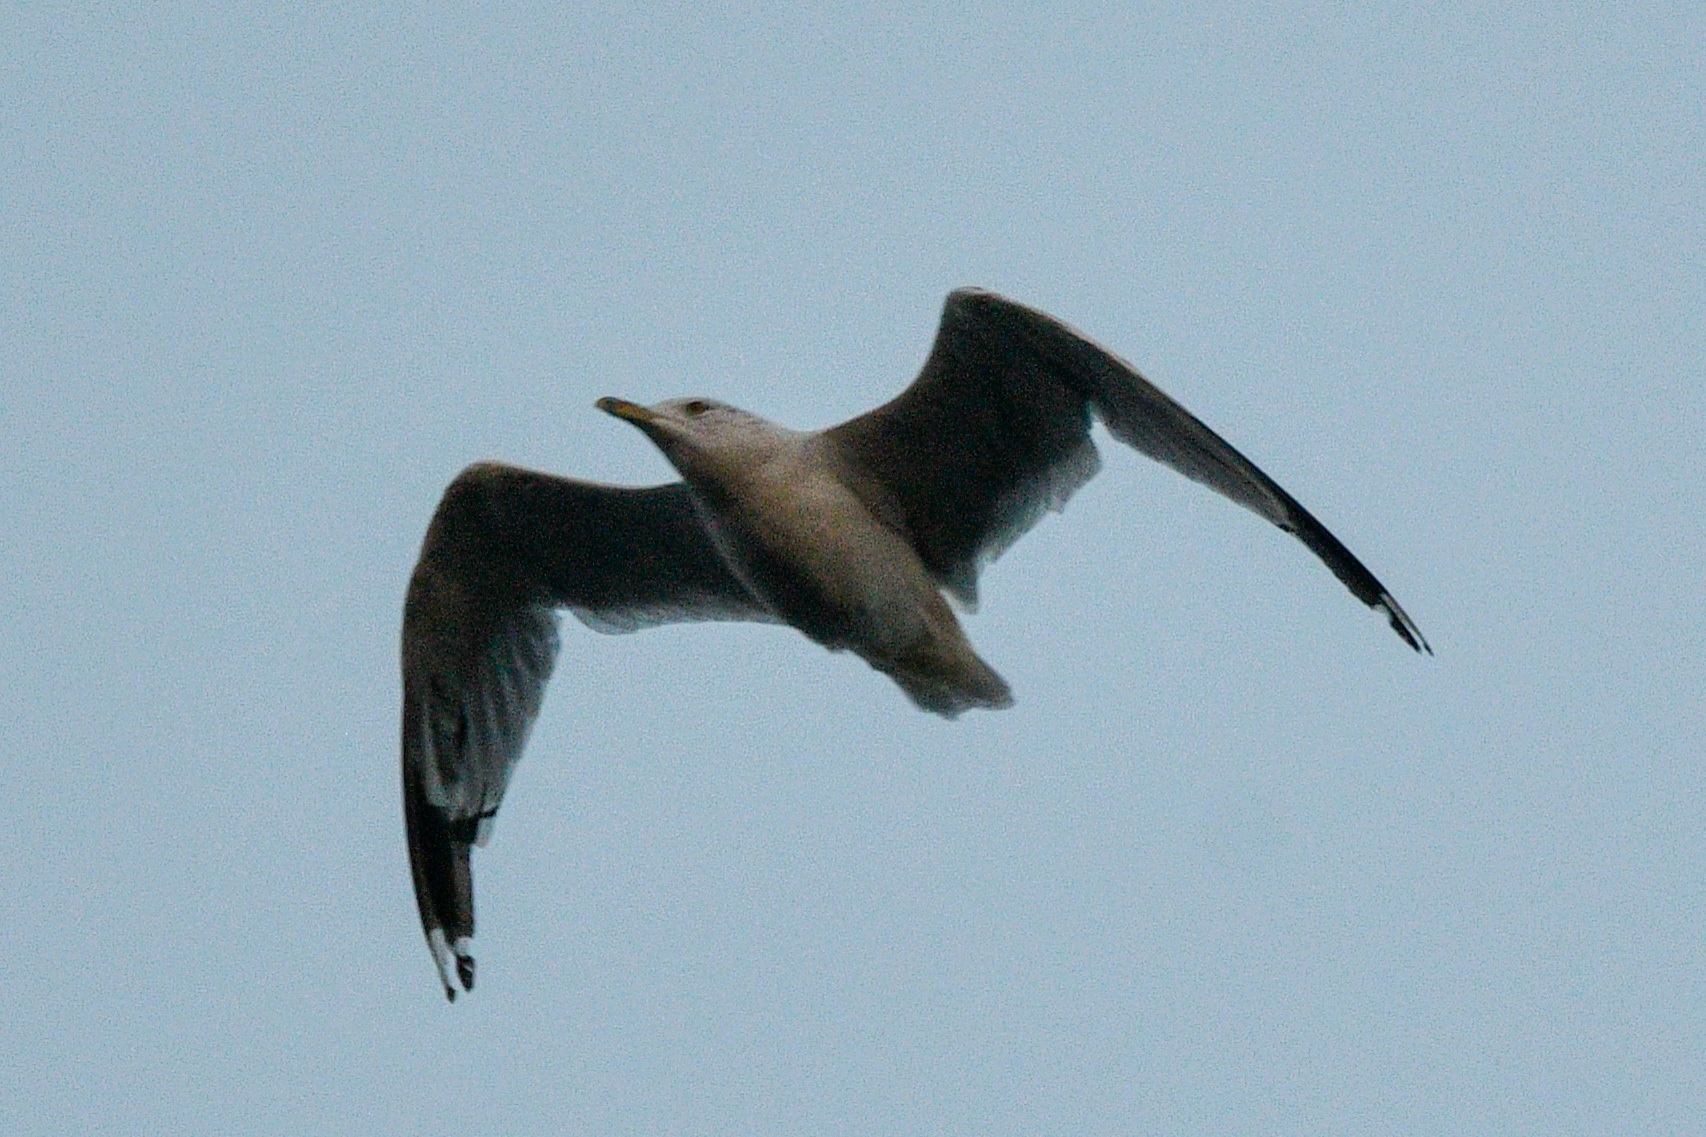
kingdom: Animalia
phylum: Chordata
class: Aves
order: Charadriiformes
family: Laridae
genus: Larus
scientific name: Larus delawarensis
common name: Ring-billed gull
